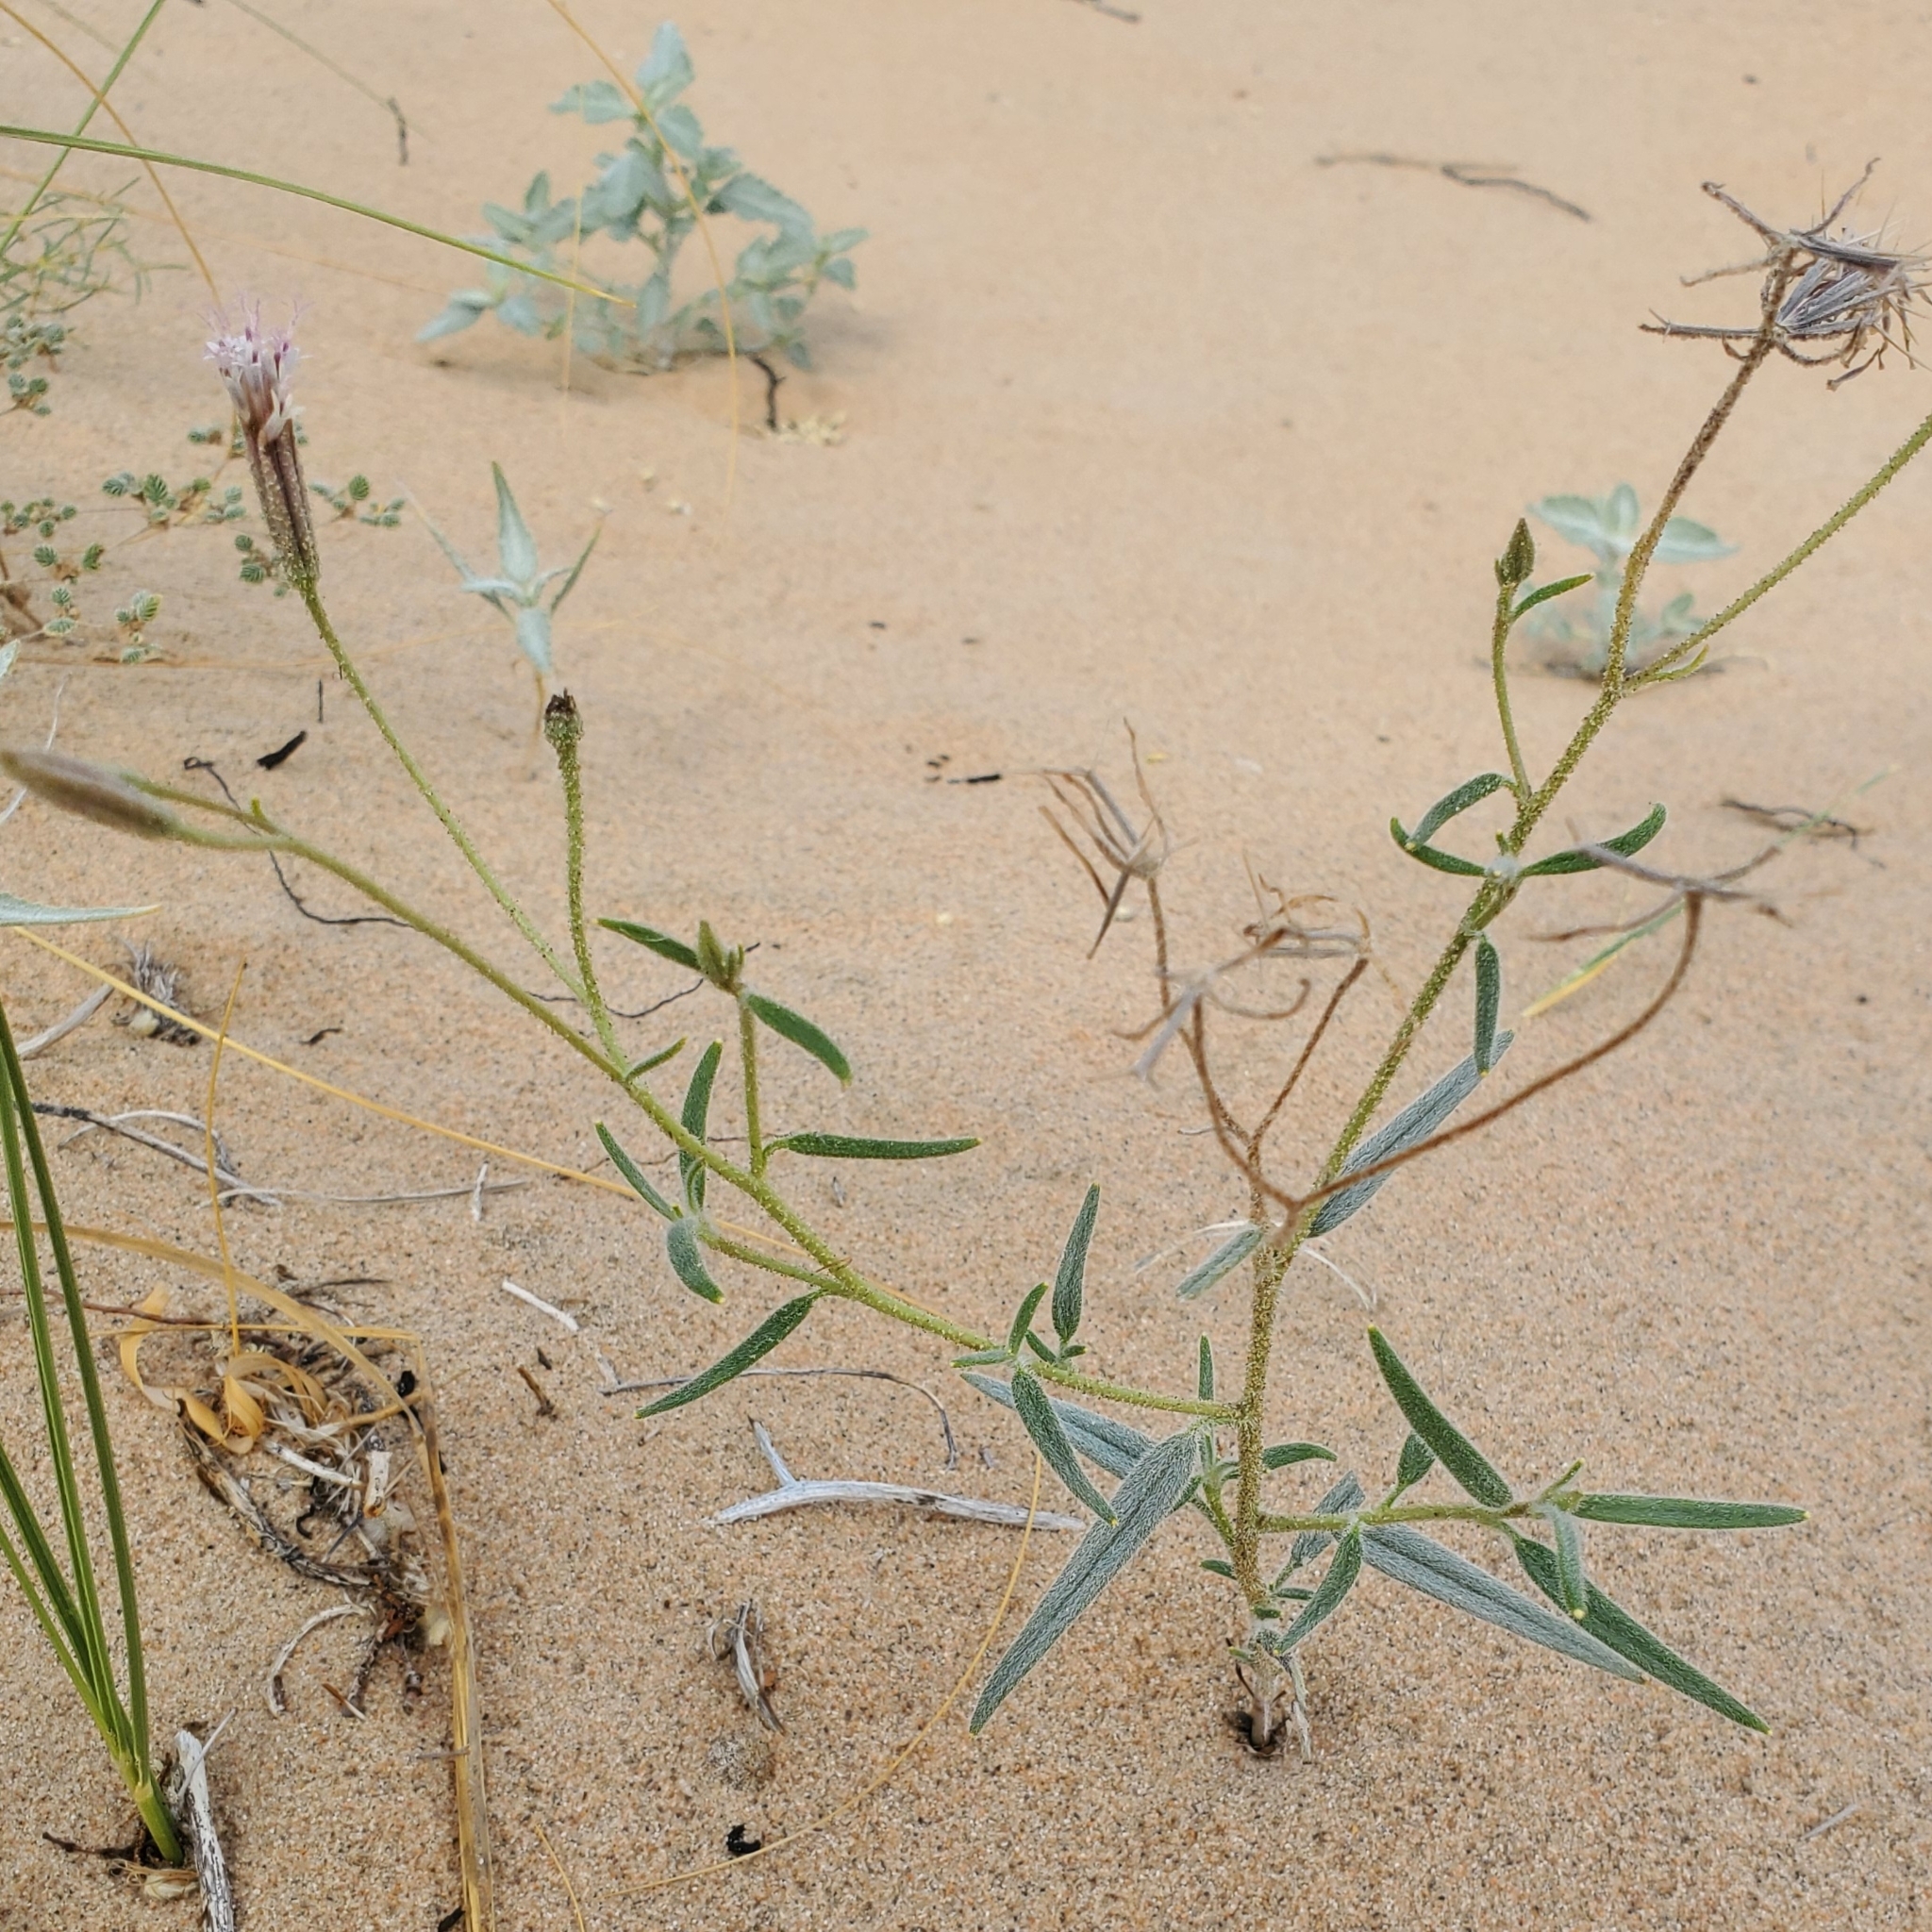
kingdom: Plantae
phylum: Tracheophyta
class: Magnoliopsida
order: Asterales
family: Asteraceae
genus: Palafoxia
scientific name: Palafoxia arida
